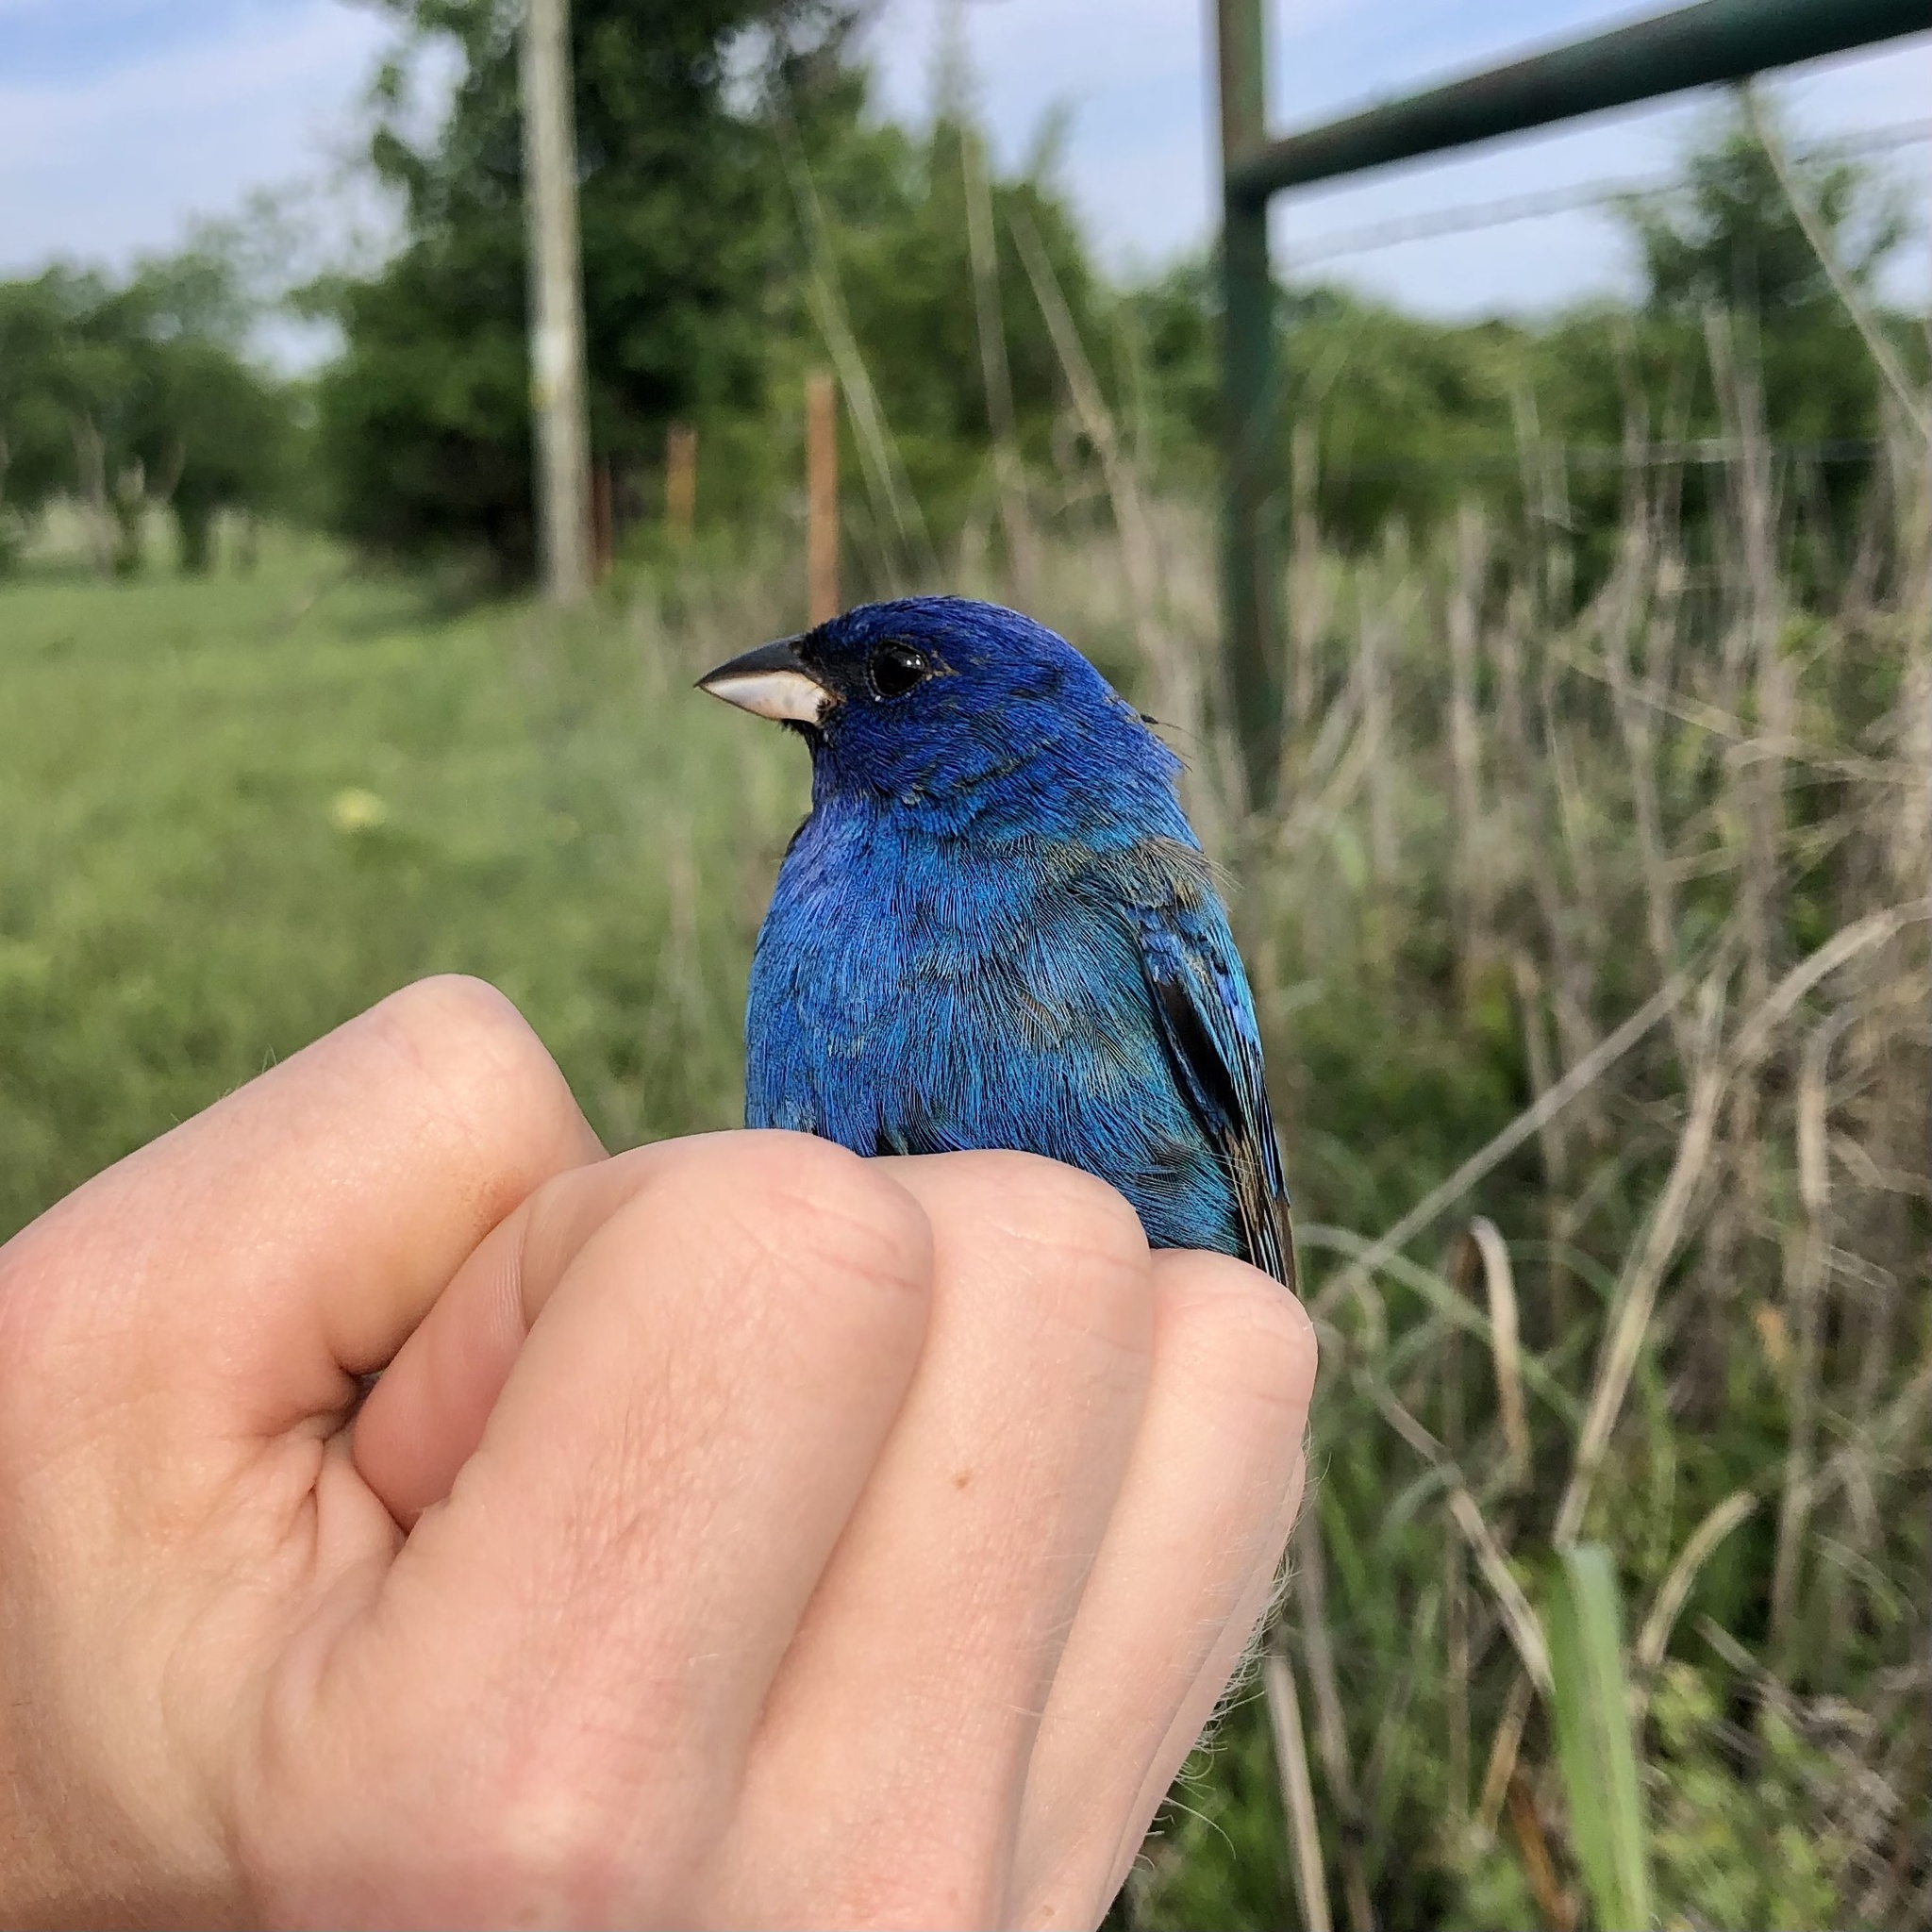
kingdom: Animalia
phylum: Chordata
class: Aves
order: Passeriformes
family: Cardinalidae
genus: Passerina
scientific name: Passerina cyanea
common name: Indigo bunting
